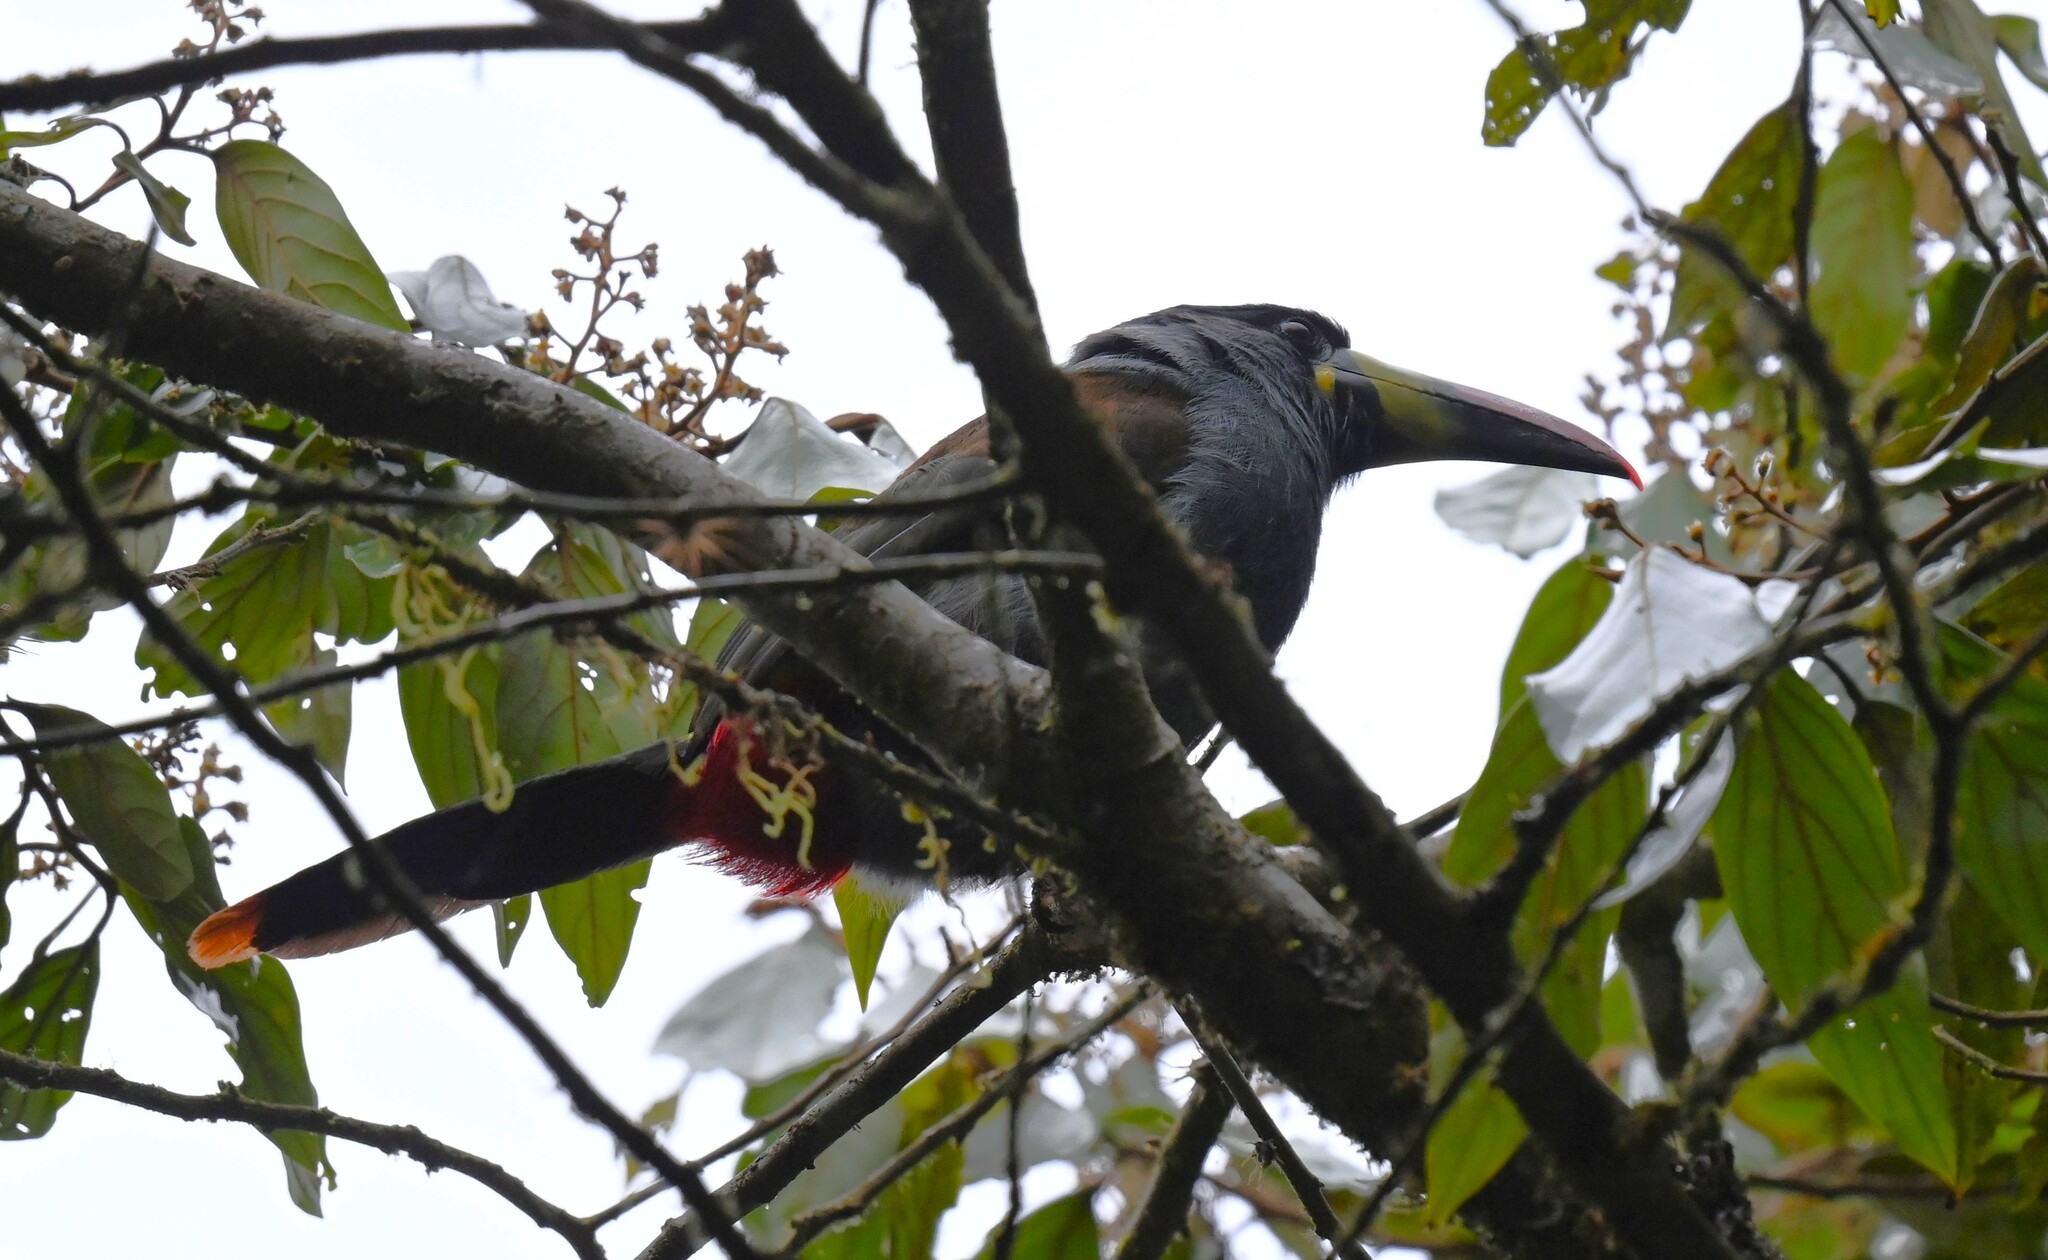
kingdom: Animalia
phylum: Chordata
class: Aves
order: Piciformes
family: Ramphastidae
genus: Andigena
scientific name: Andigena hypoglauca
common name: Grey-breasted mountain toucan
